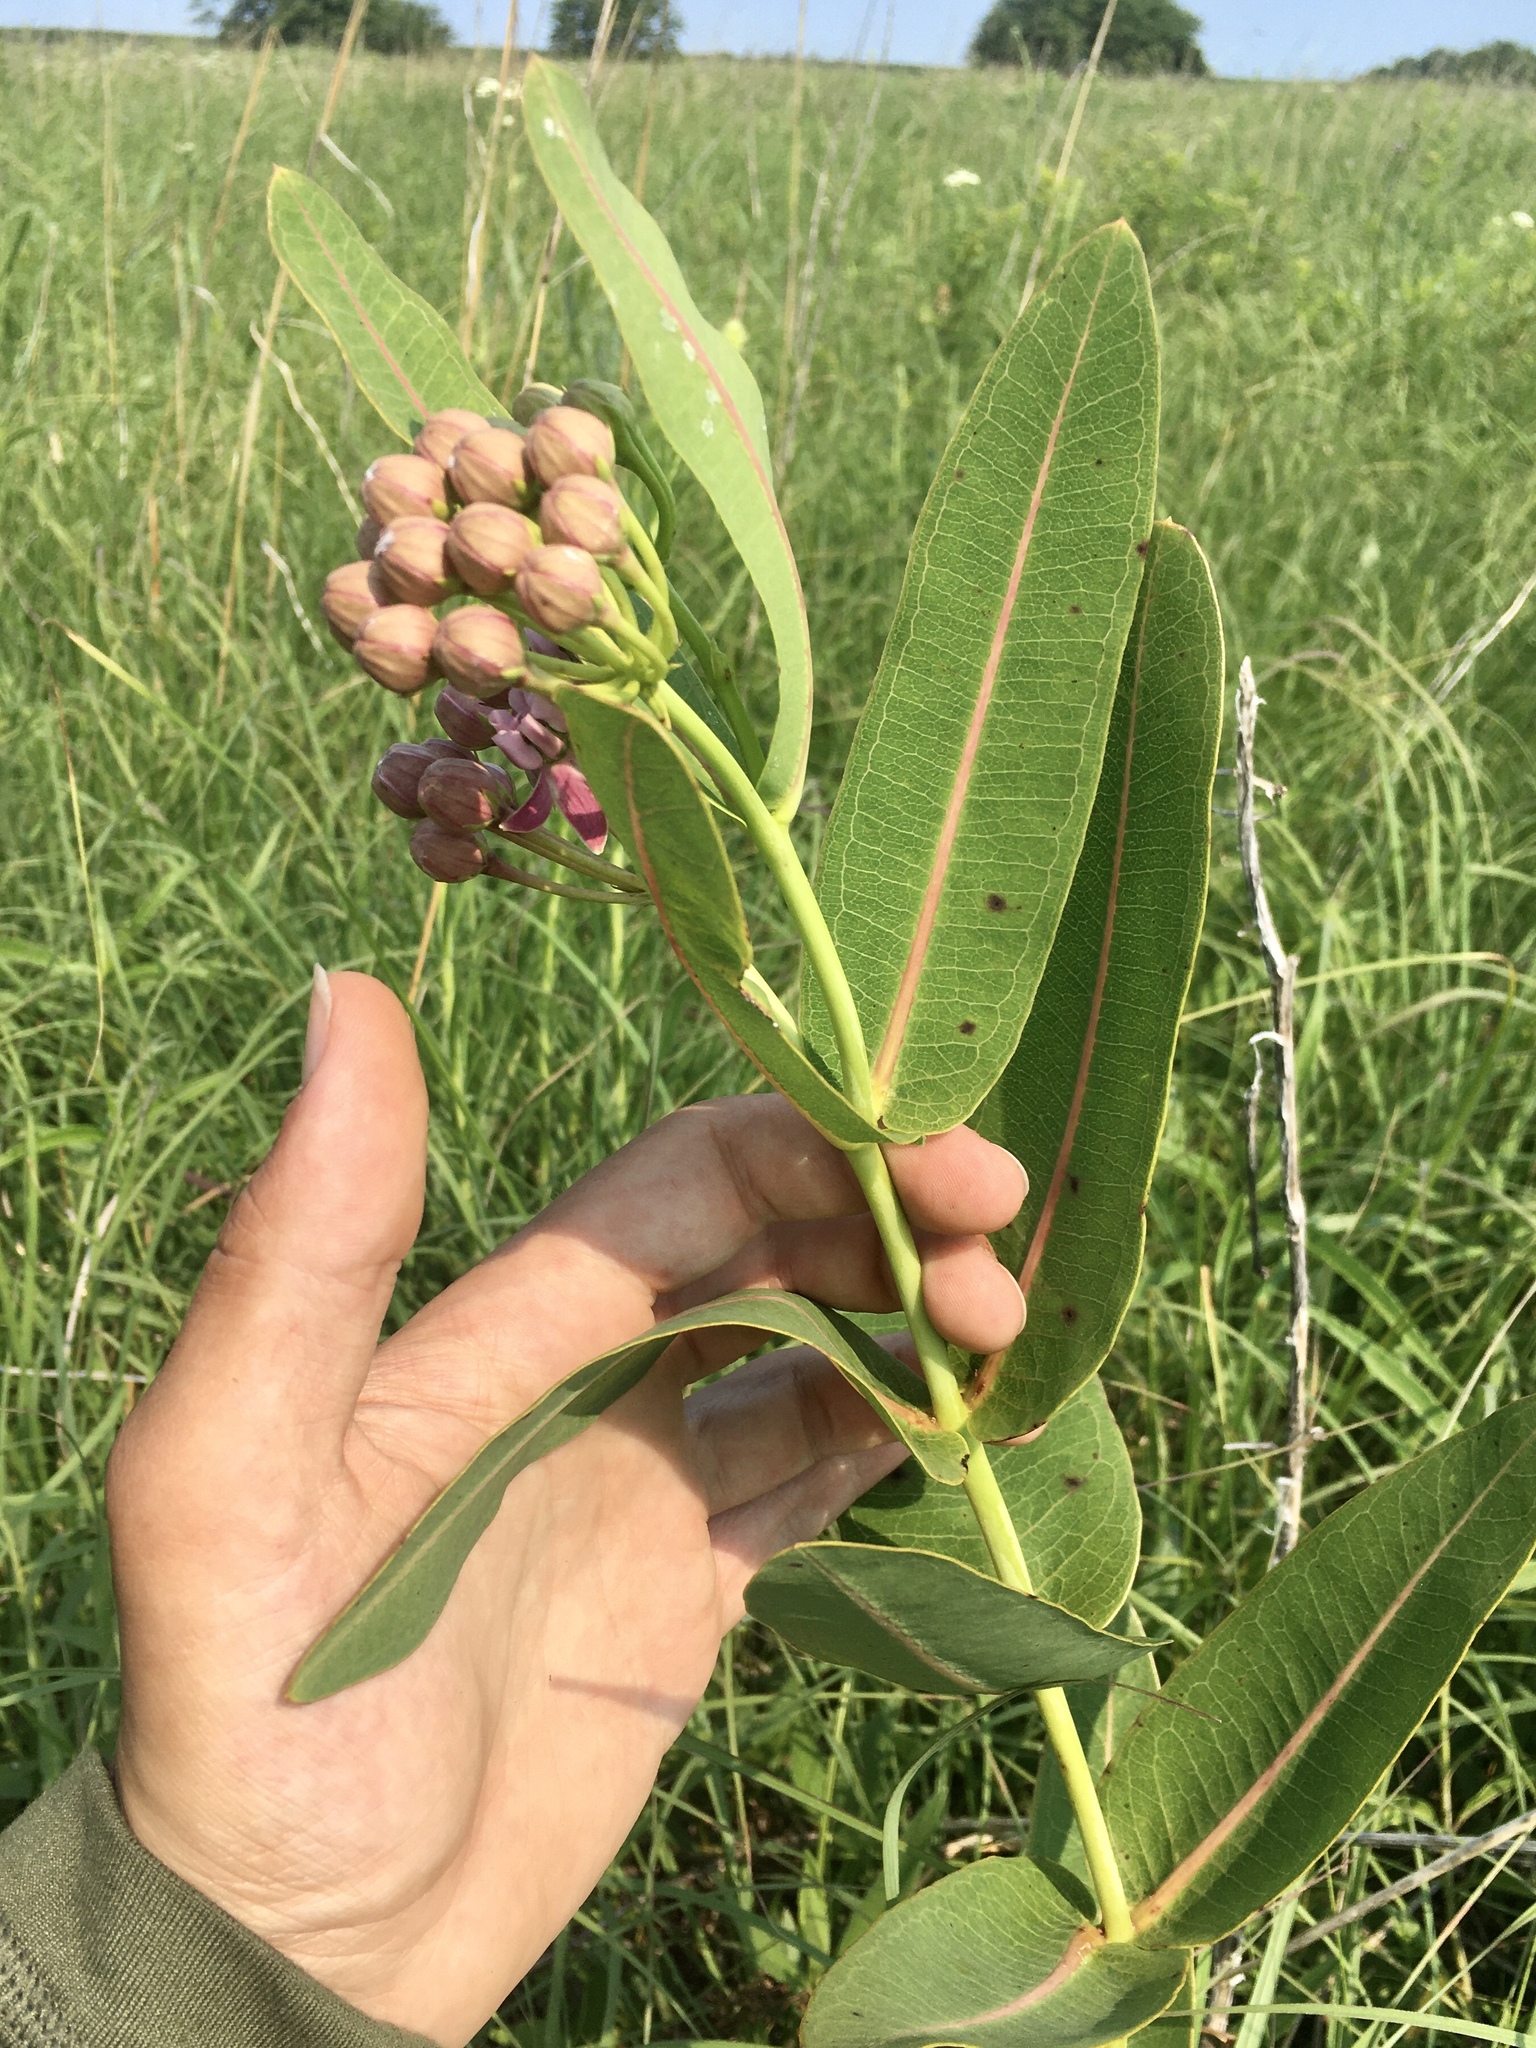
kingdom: Plantae
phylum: Tracheophyta
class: Magnoliopsida
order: Gentianales
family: Apocynaceae
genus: Asclepias
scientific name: Asclepias sullivantii
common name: Prairie milkweed
